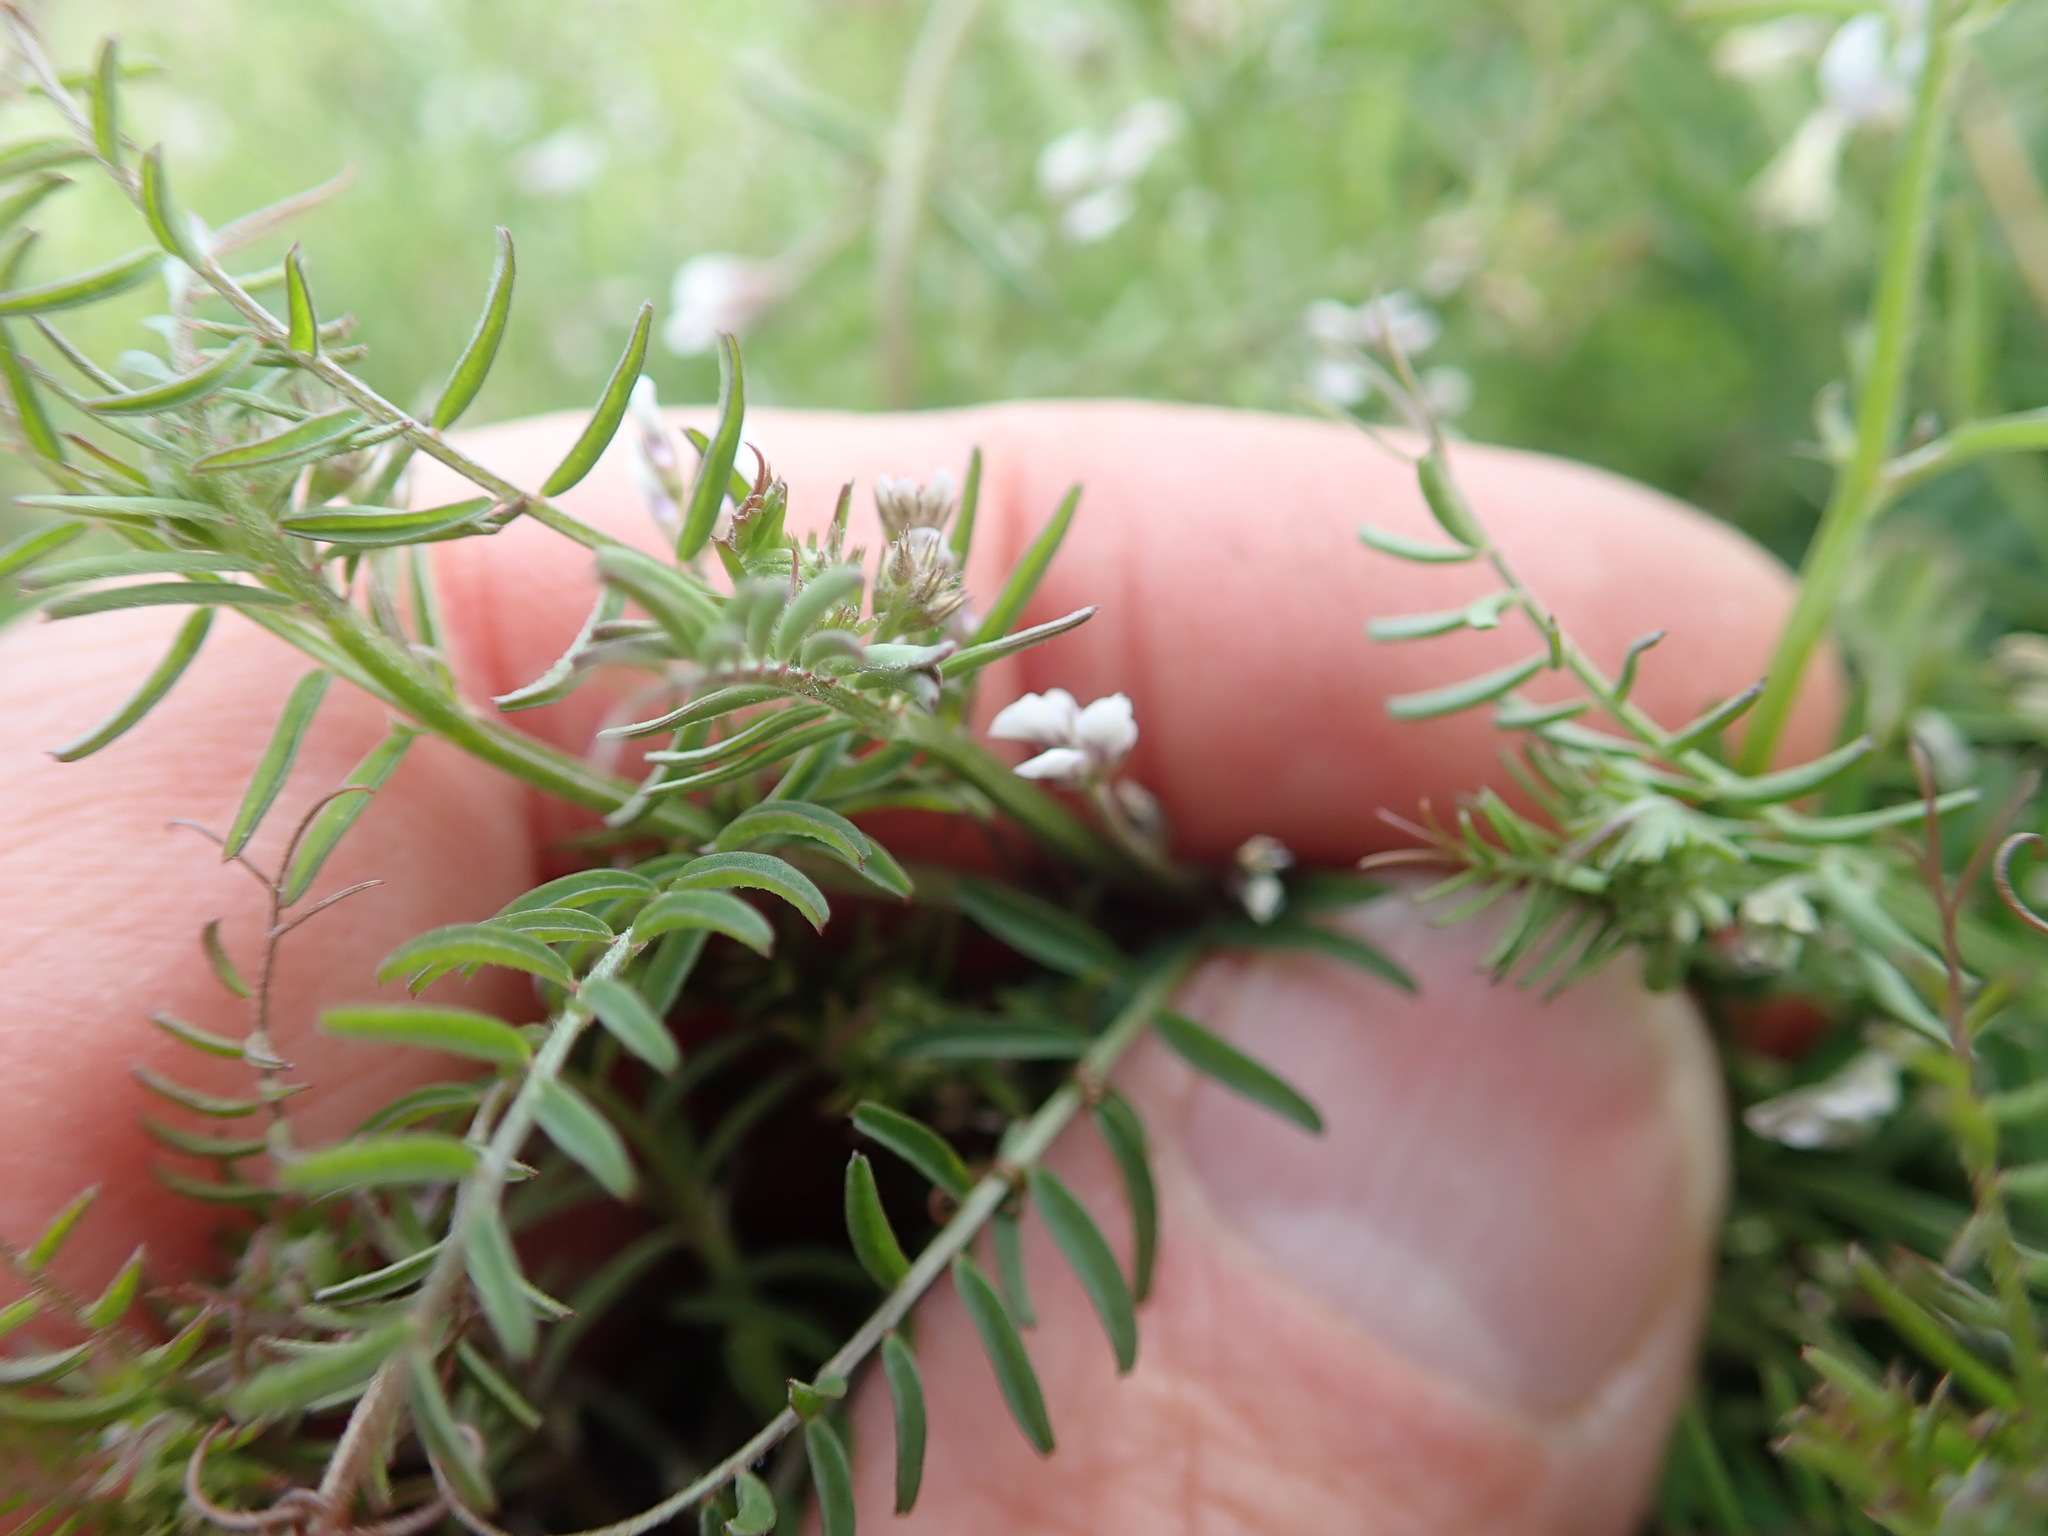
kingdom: Plantae
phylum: Tracheophyta
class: Magnoliopsida
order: Fabales
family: Fabaceae
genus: Vicia
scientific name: Vicia disperma
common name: European vetch
